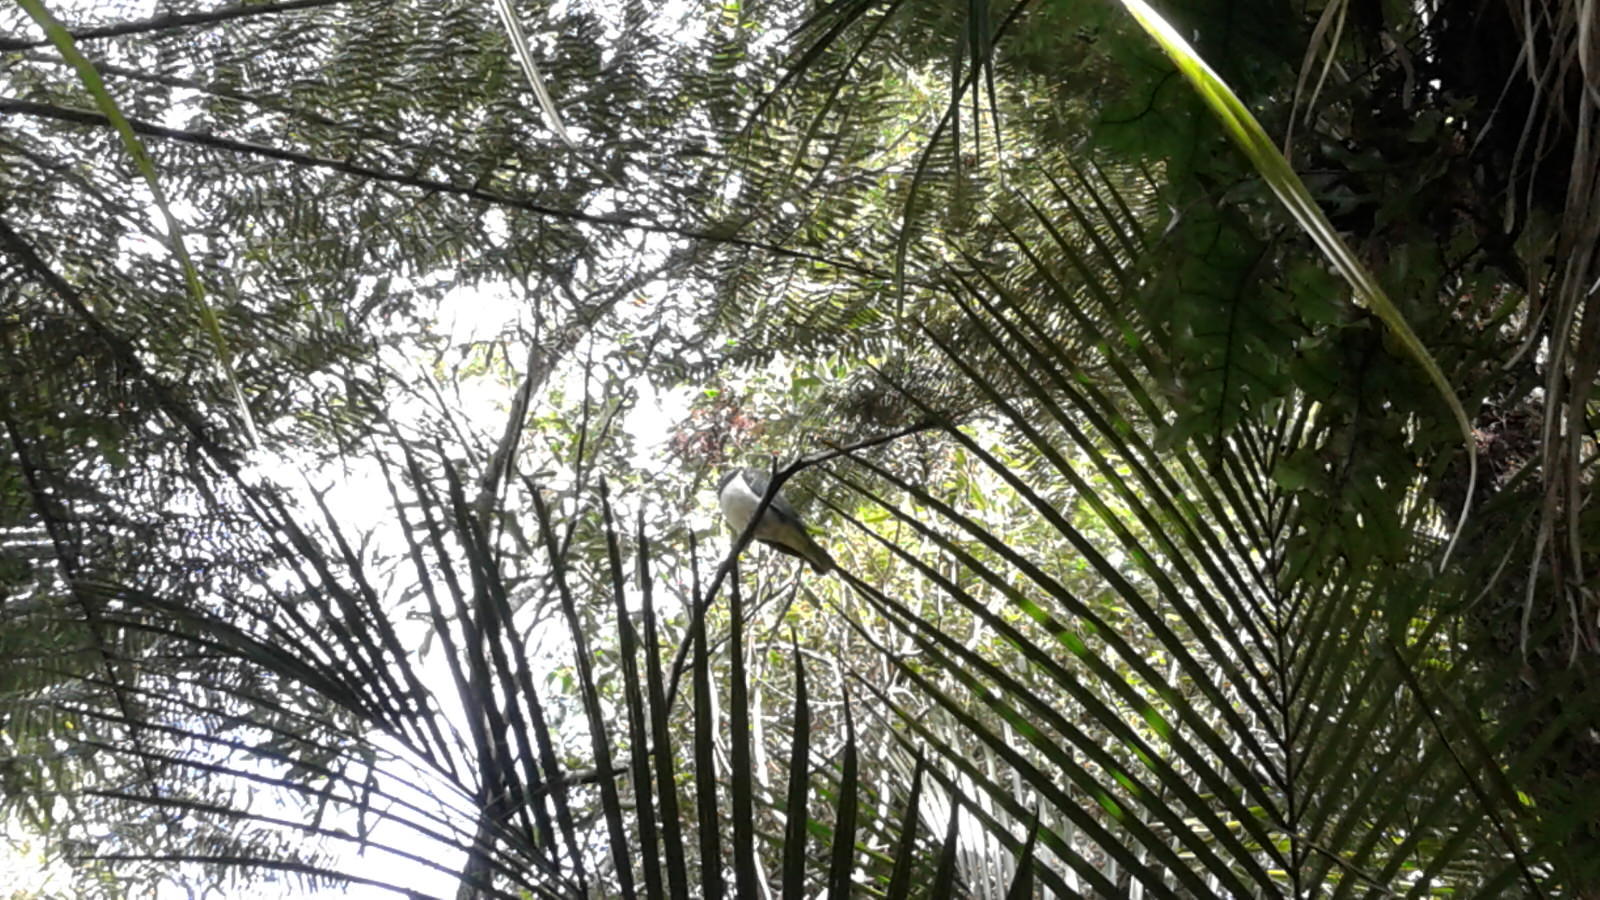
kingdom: Animalia
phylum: Chordata
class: Aves
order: Columbiformes
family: Columbidae
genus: Hemiphaga
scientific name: Hemiphaga novaeseelandiae
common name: New zealand pigeon
